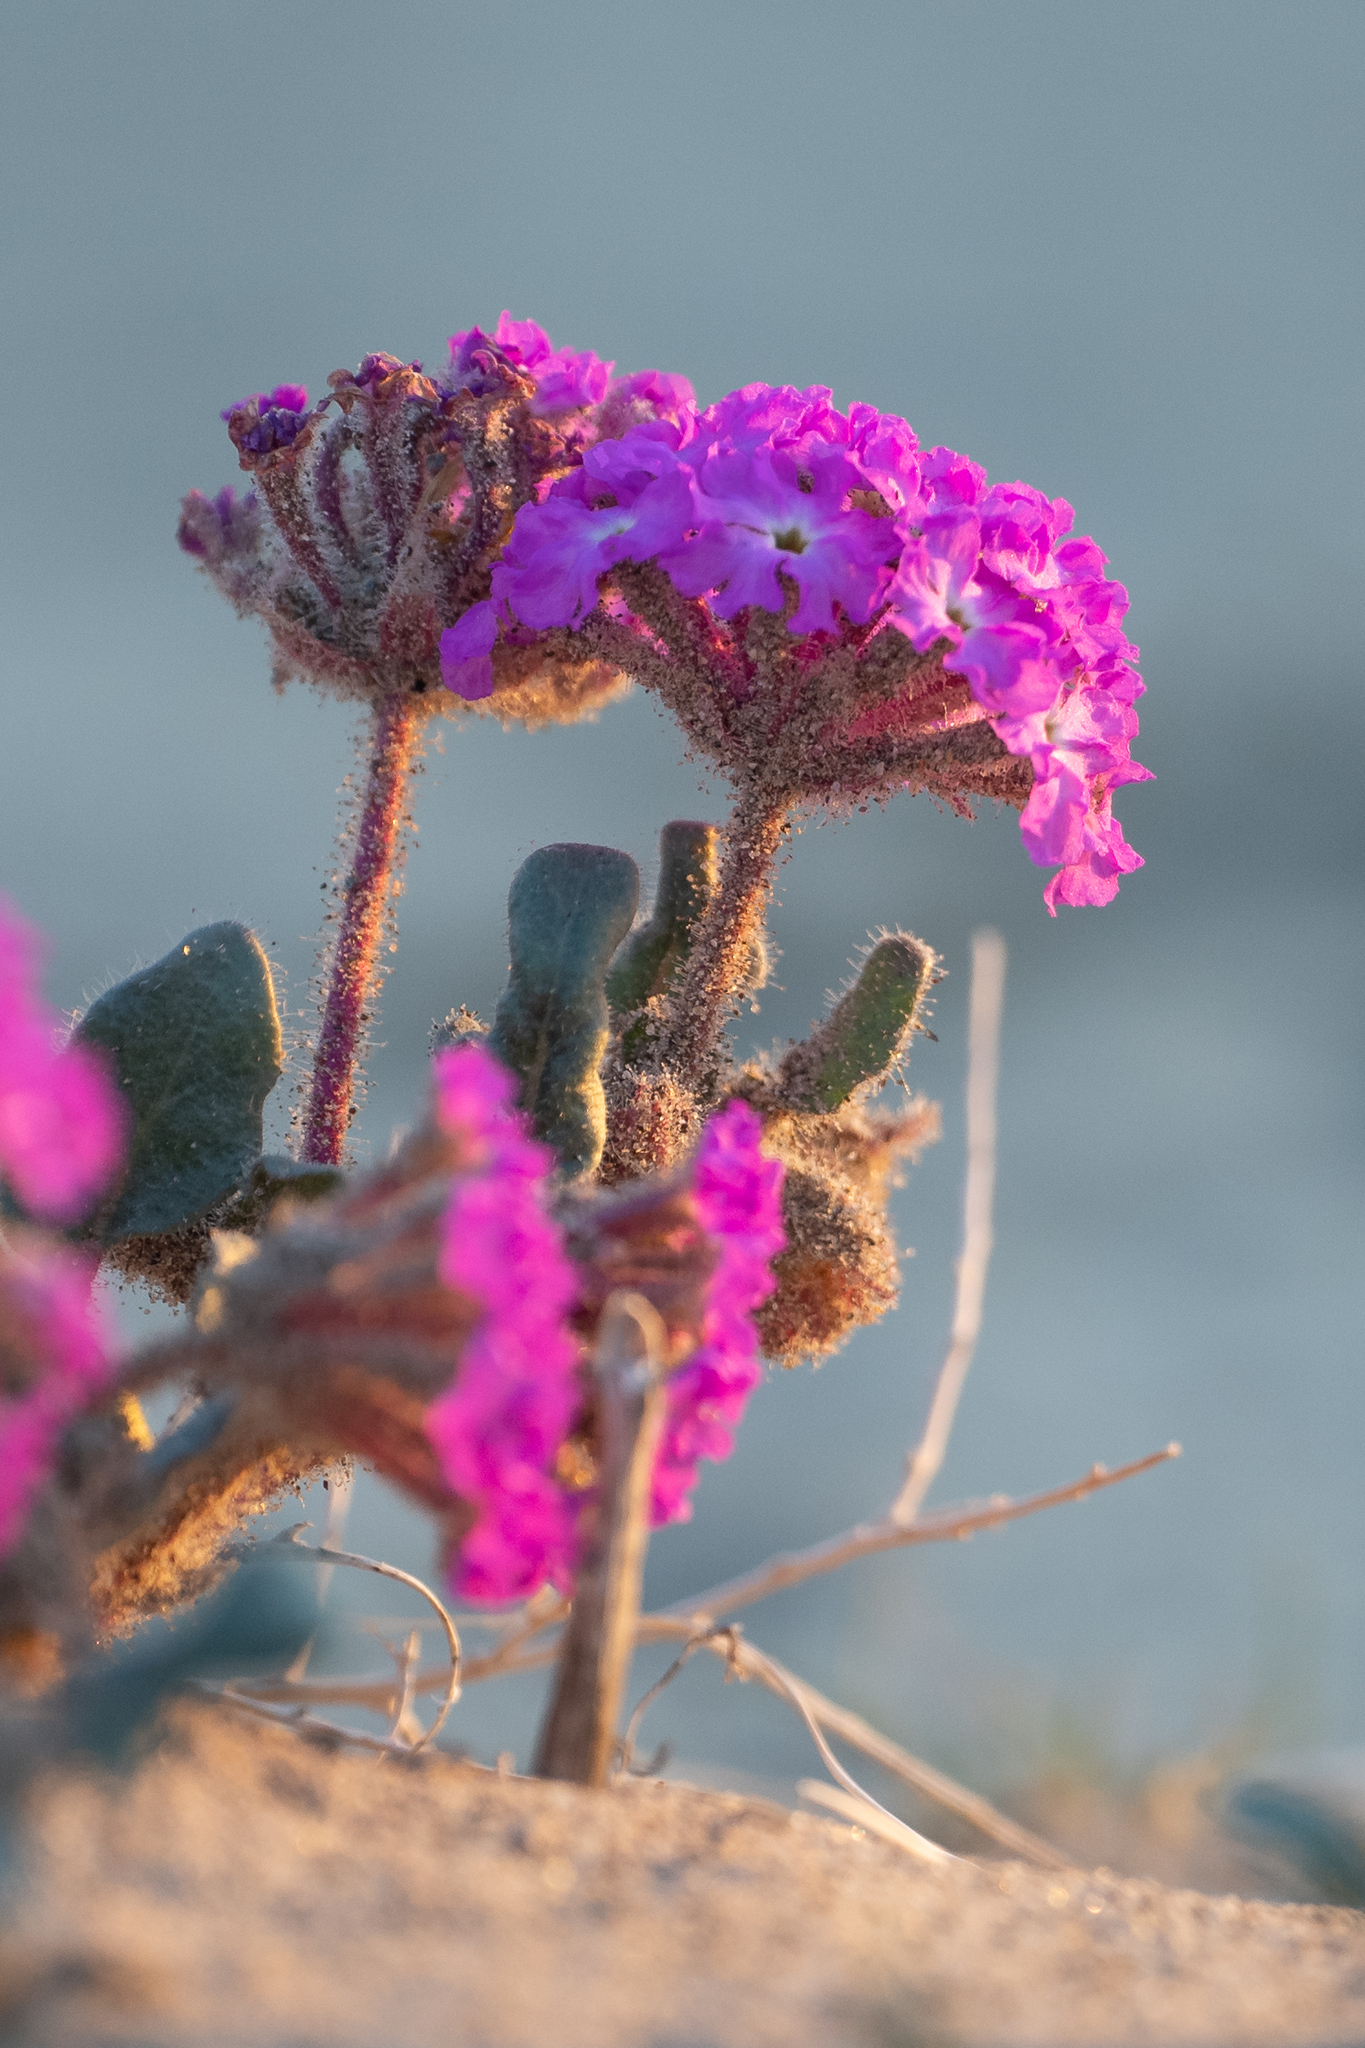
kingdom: Plantae
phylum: Tracheophyta
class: Magnoliopsida
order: Caryophyllales
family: Nyctaginaceae
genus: Abronia
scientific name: Abronia villosa
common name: Desert sand-verbena
